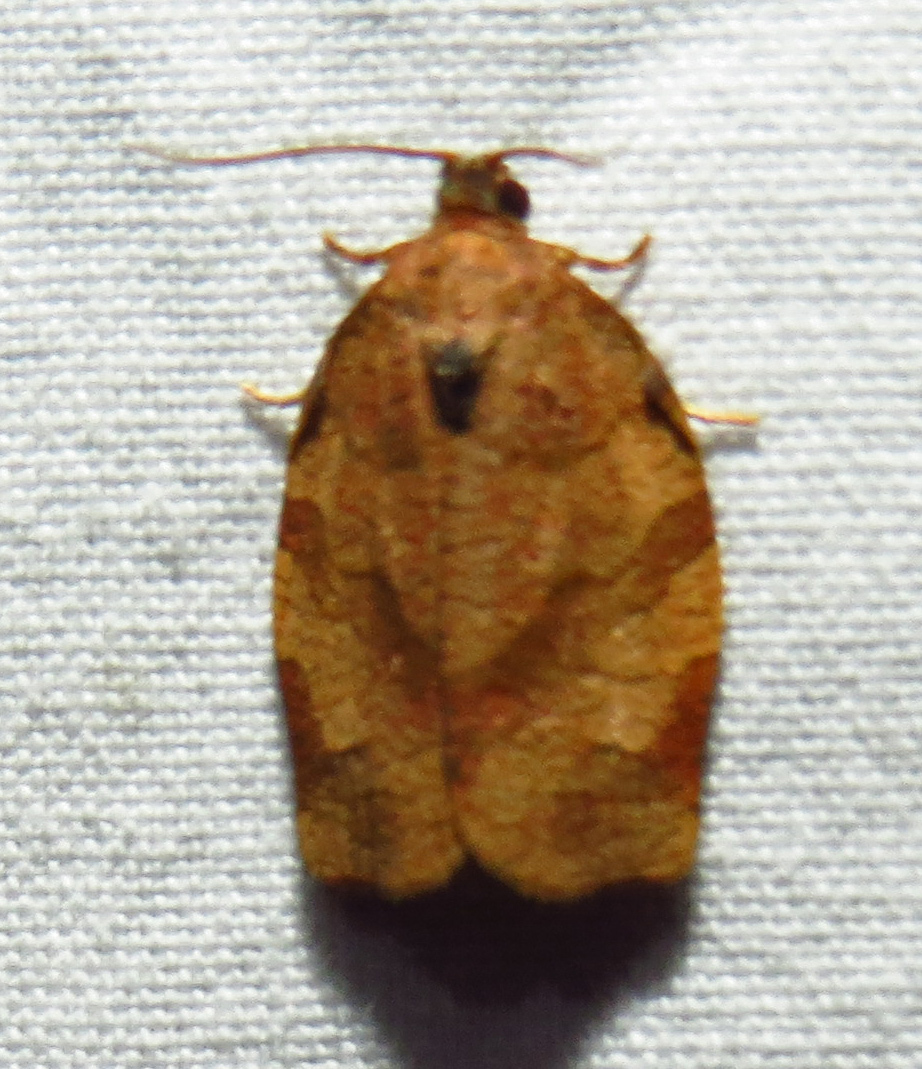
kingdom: Animalia
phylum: Arthropoda
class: Insecta
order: Lepidoptera
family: Tortricidae
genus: Choristoneura
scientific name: Choristoneura rosaceana
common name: Oblique-banded leafroller moth
